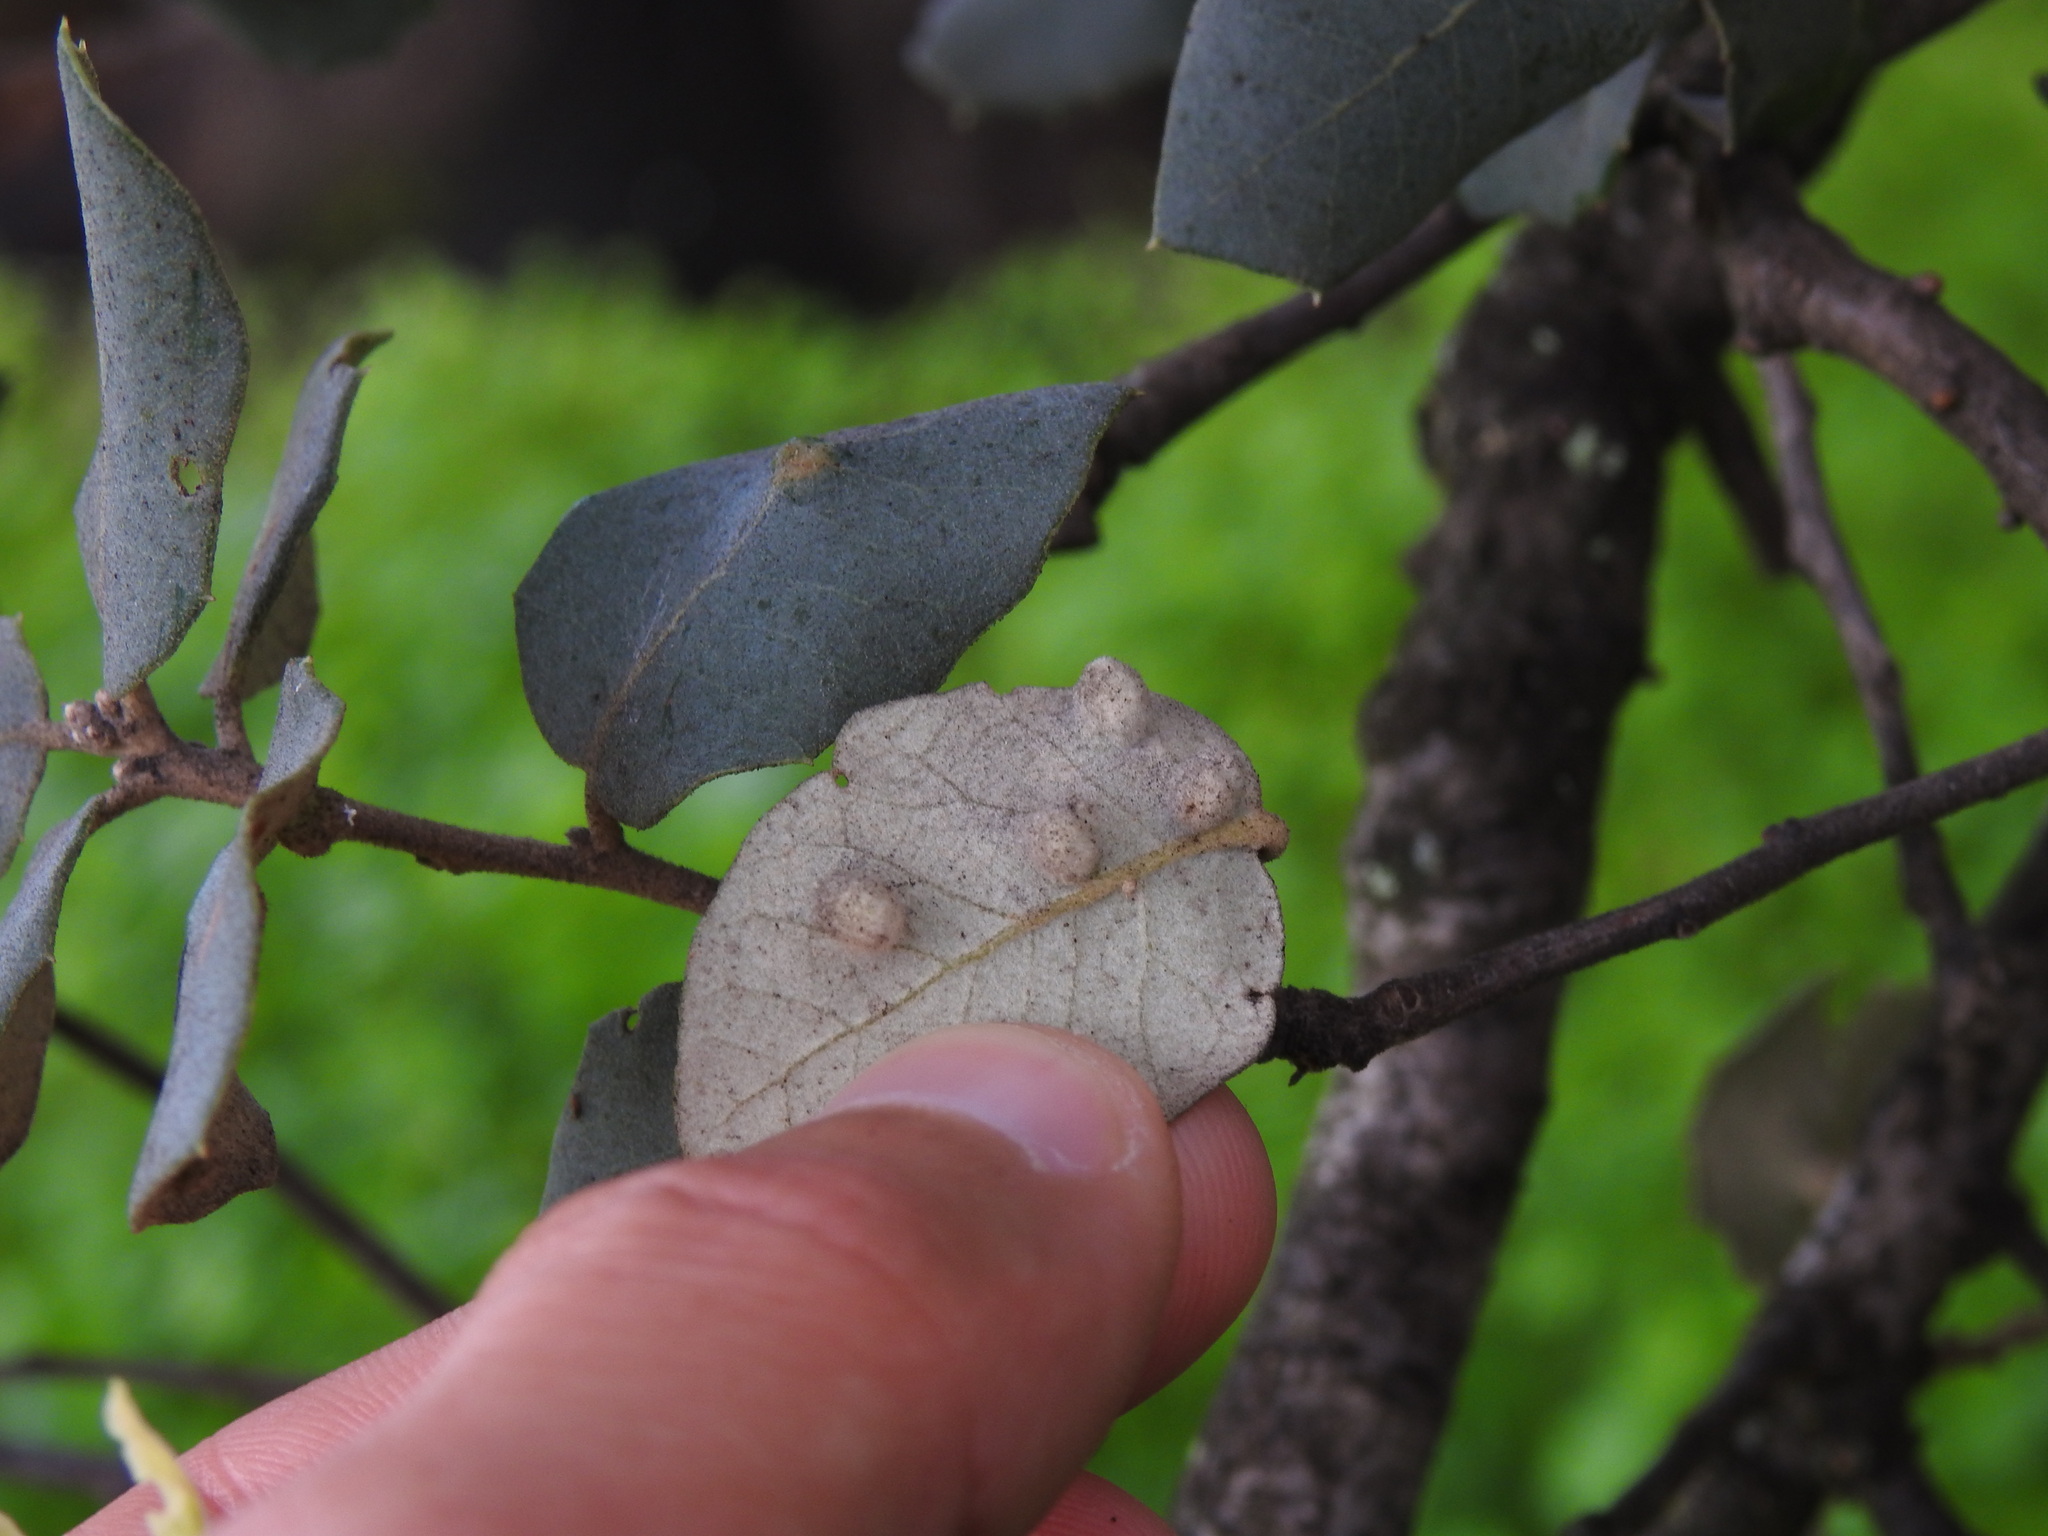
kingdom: Animalia
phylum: Arthropoda
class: Insecta
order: Diptera
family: Cecidomyiidae
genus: Dryomyia
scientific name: Dryomyia lichtensteinii
